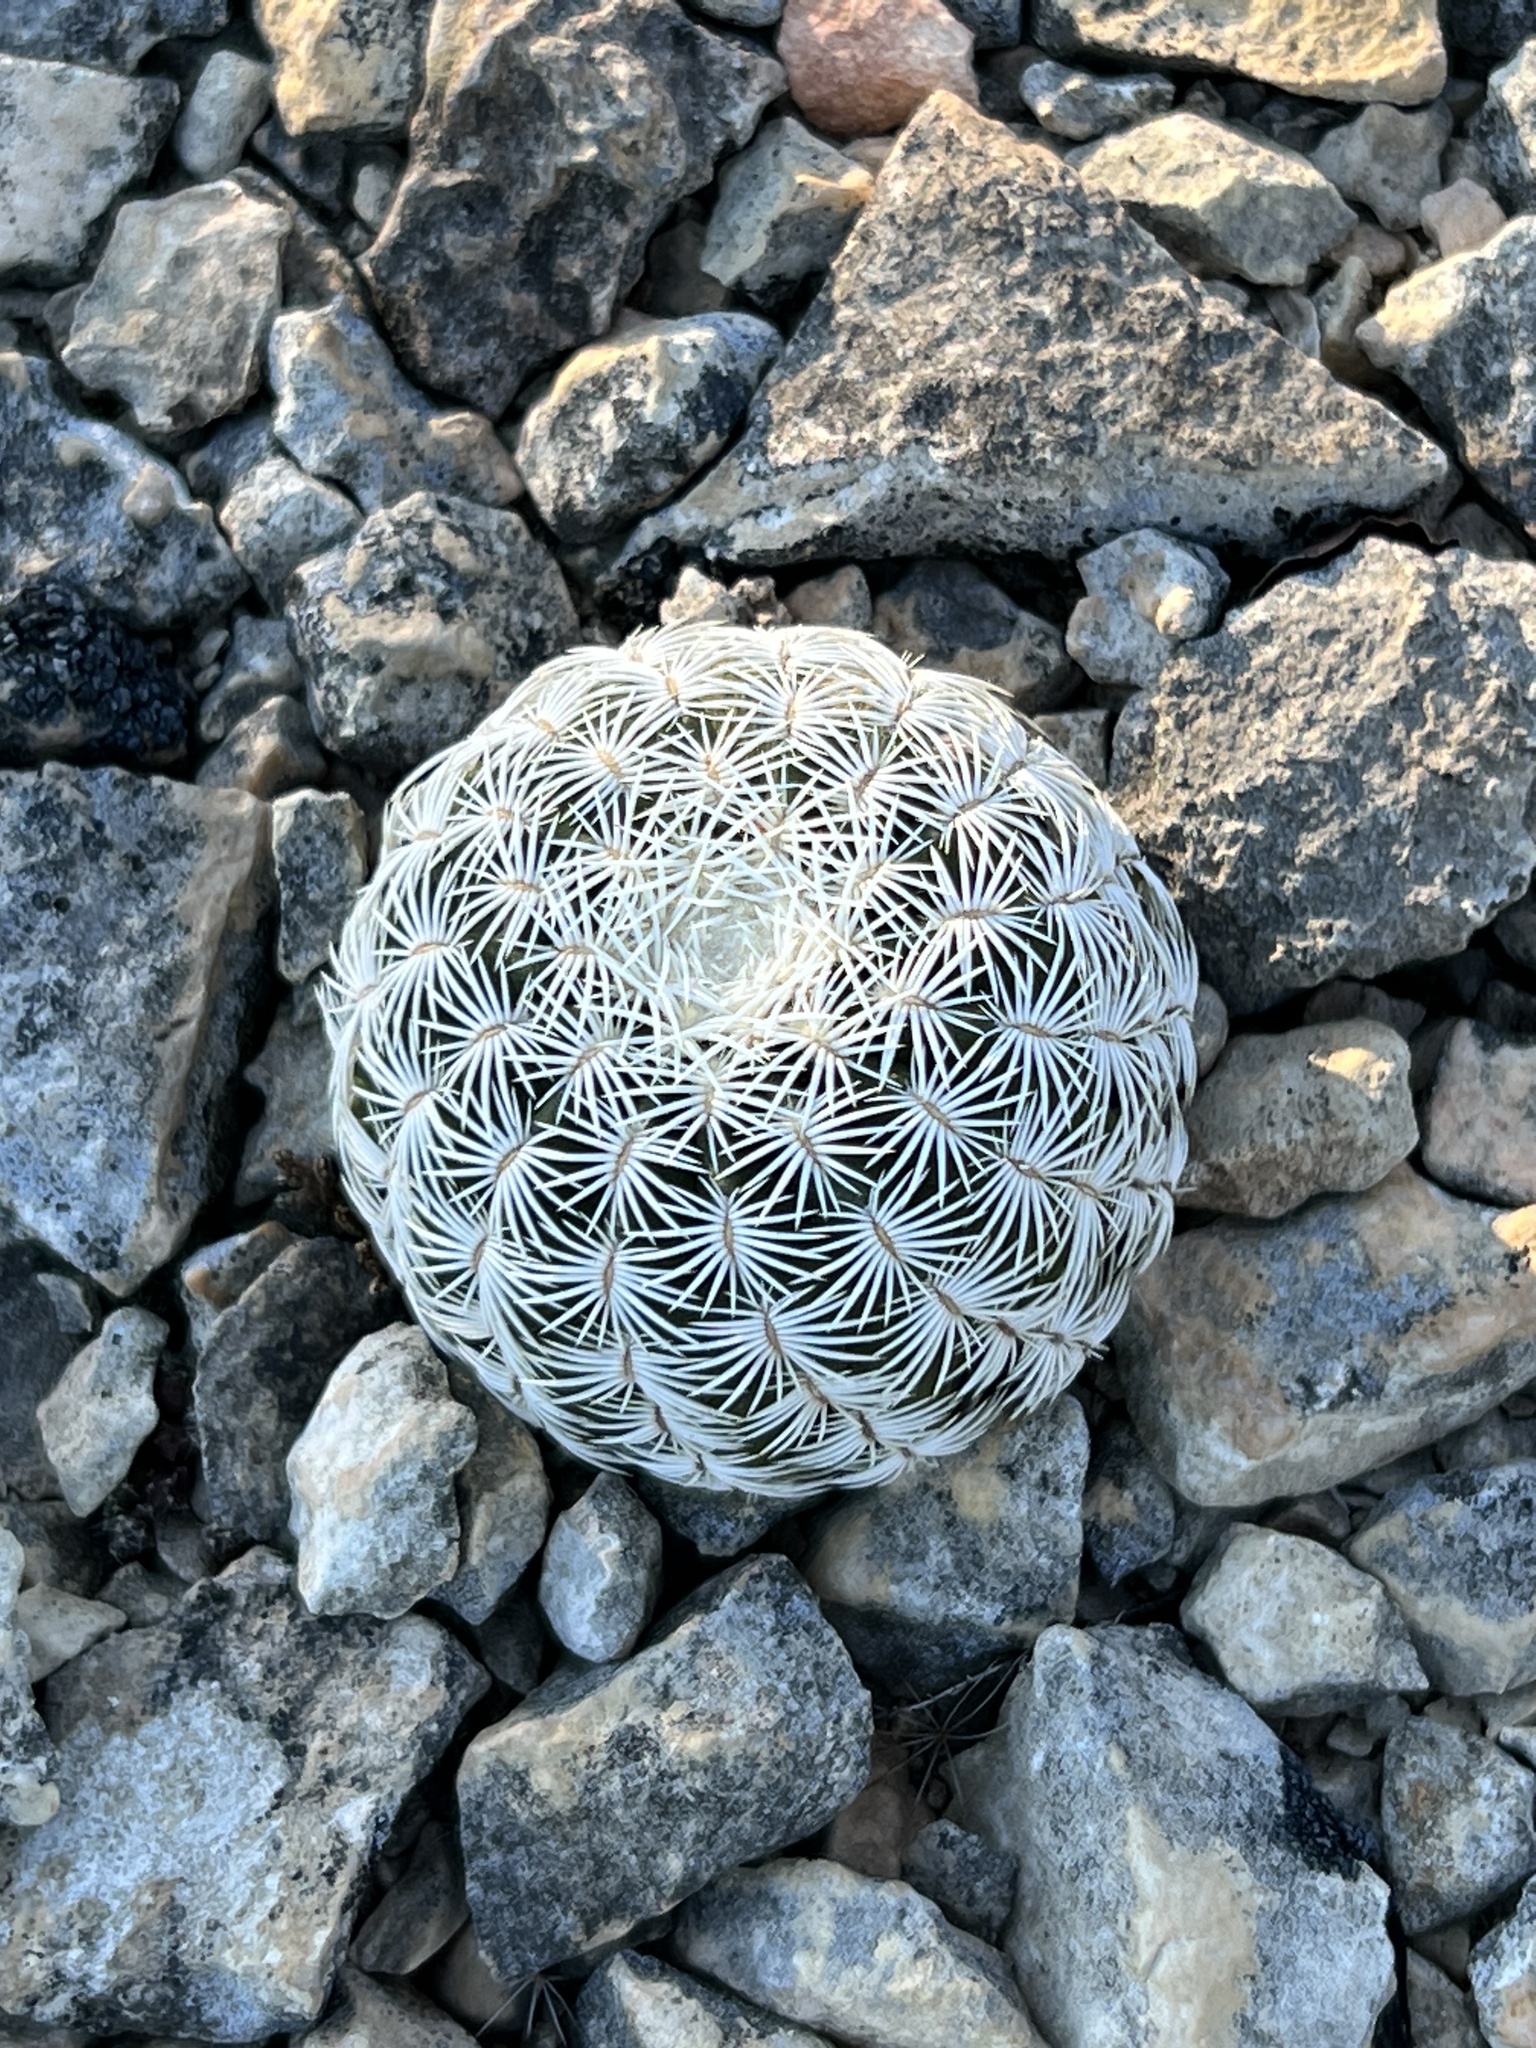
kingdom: Plantae
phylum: Tracheophyta
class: Magnoliopsida
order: Caryophyllales
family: Cactaceae
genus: Echinocereus
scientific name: Echinocereus reichenbachii
